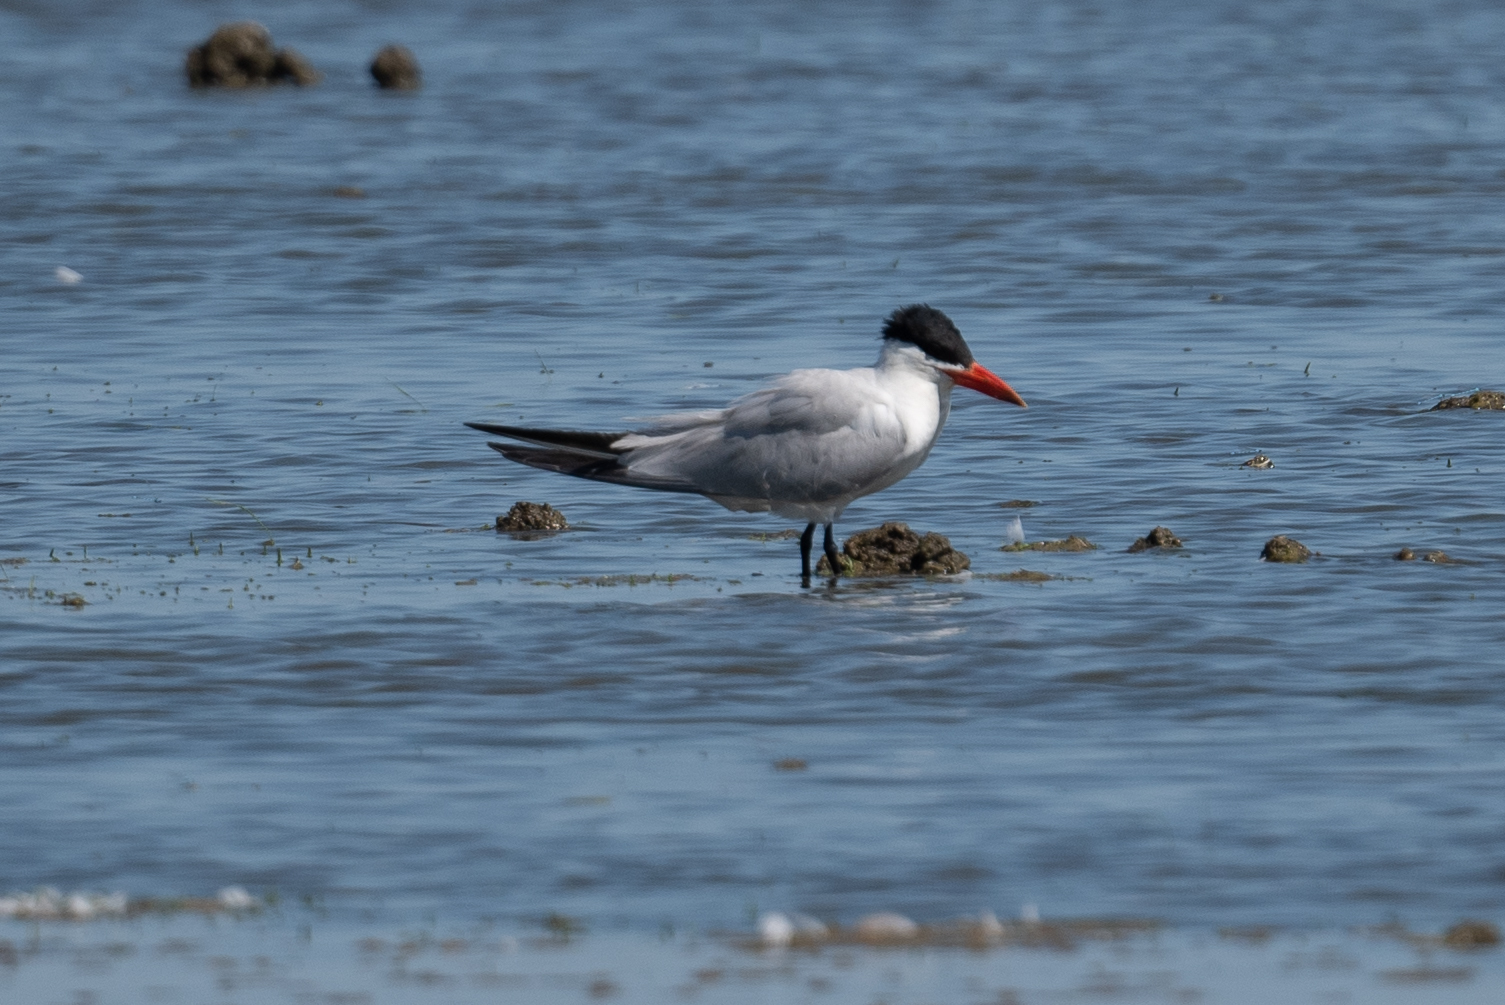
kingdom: Animalia
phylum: Chordata
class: Aves
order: Charadriiformes
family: Laridae
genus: Hydroprogne
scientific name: Hydroprogne caspia
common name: Caspian tern
